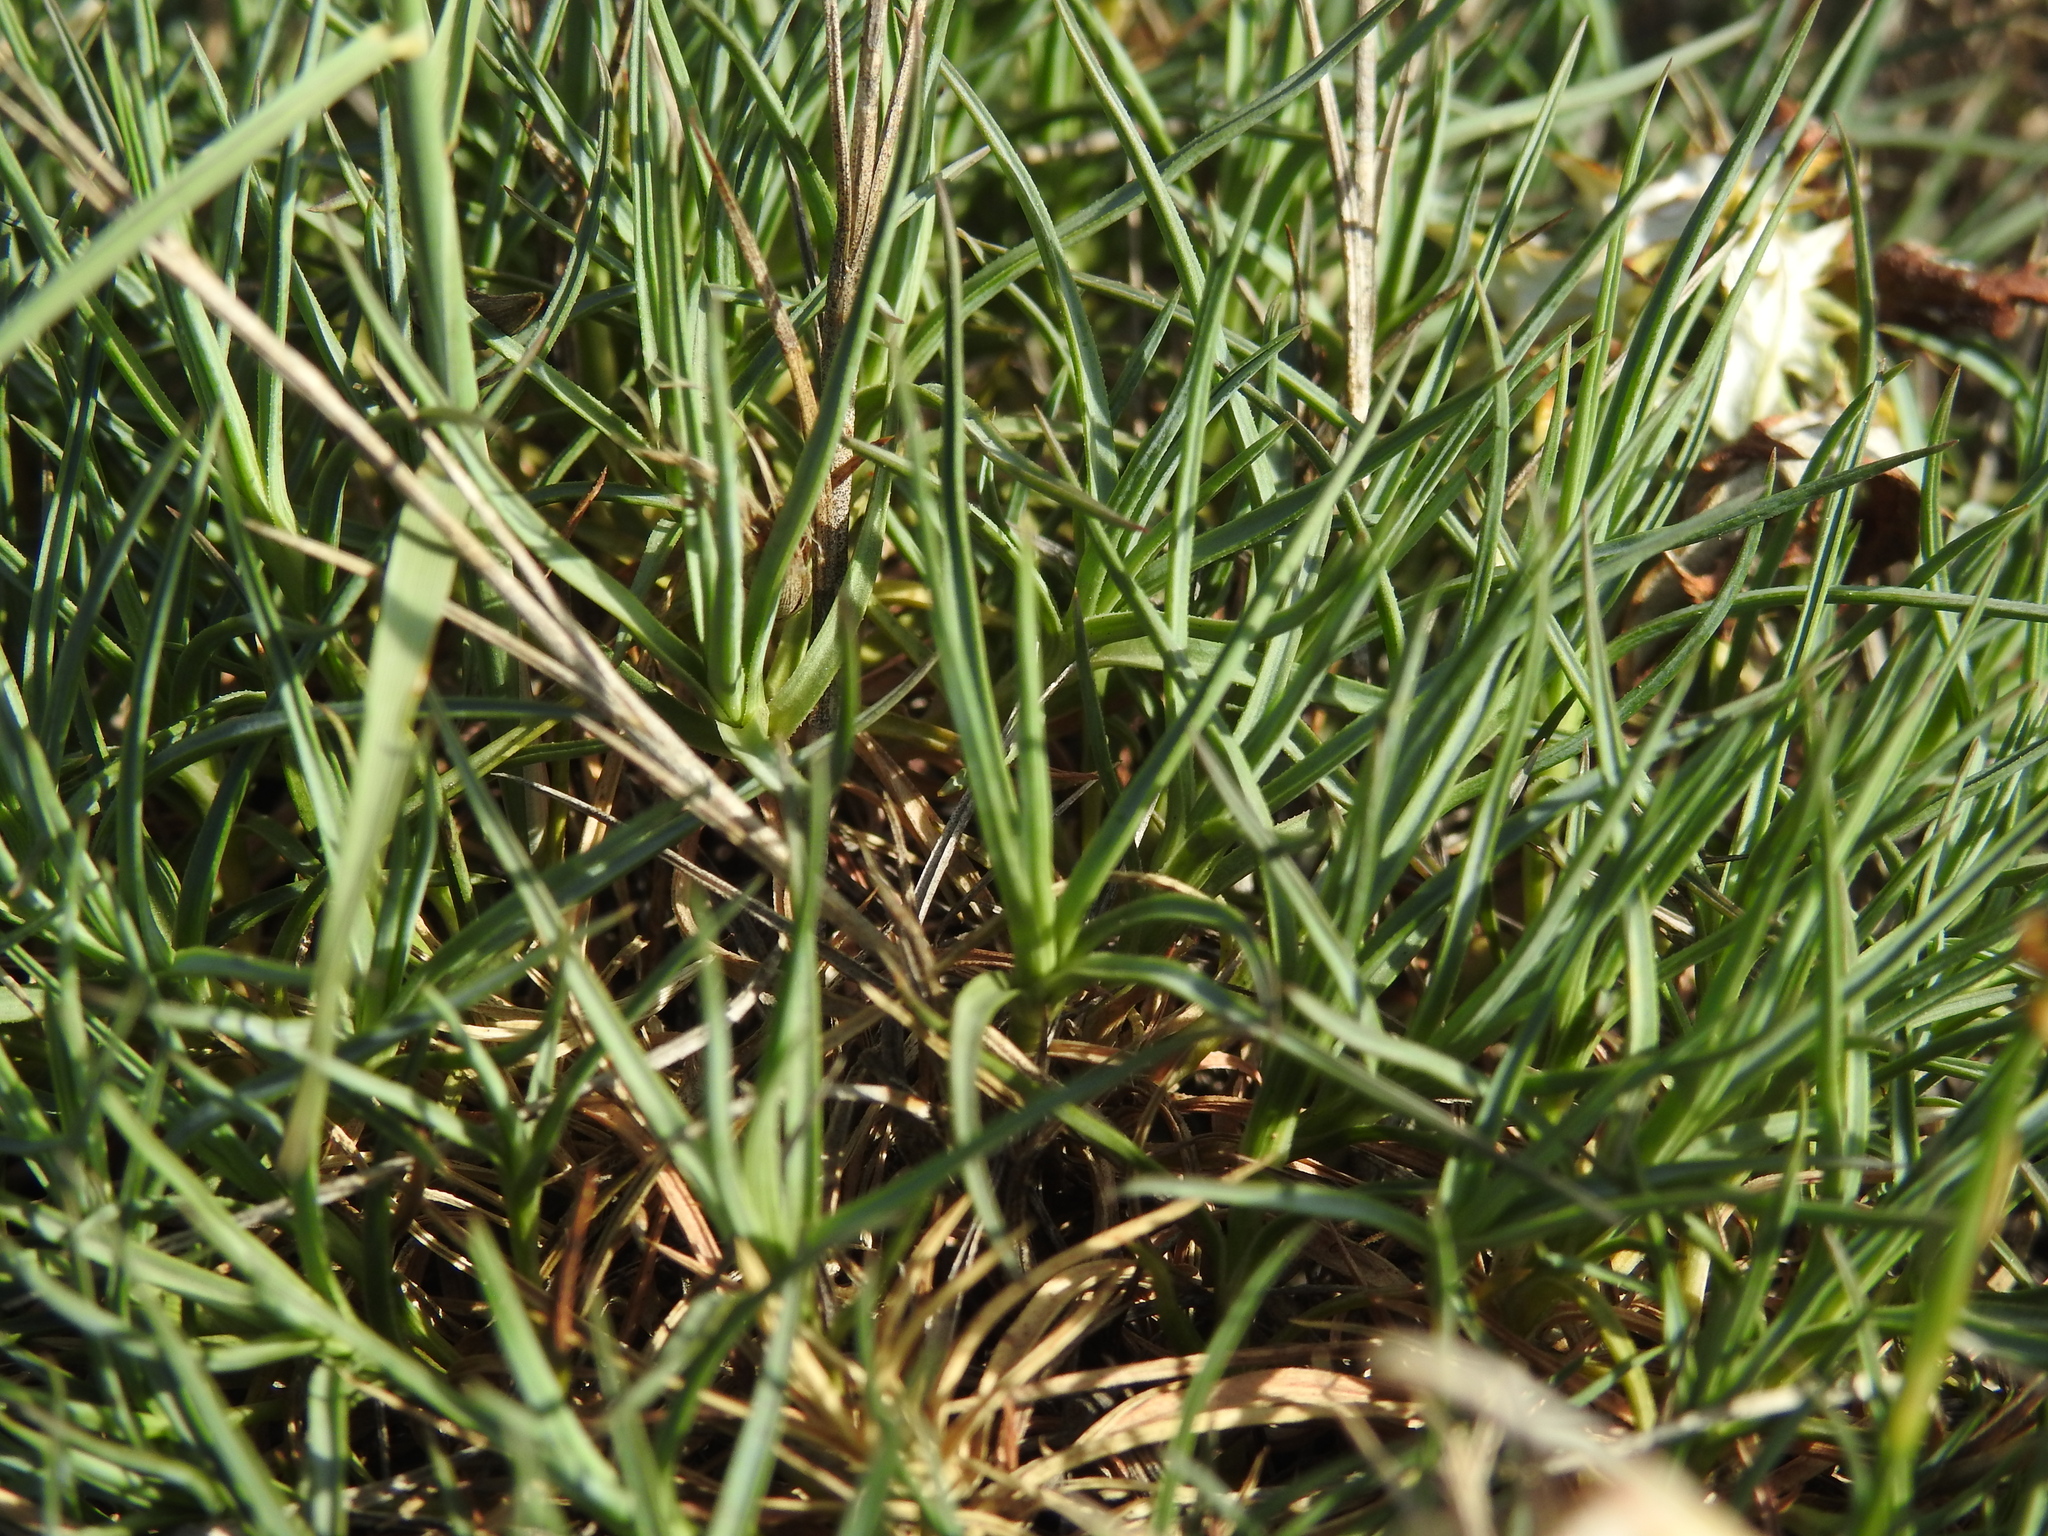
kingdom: Plantae
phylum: Tracheophyta
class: Magnoliopsida
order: Caryophyllales
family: Caryophyllaceae
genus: Dianthus
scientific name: Dianthus pyrenaicus
